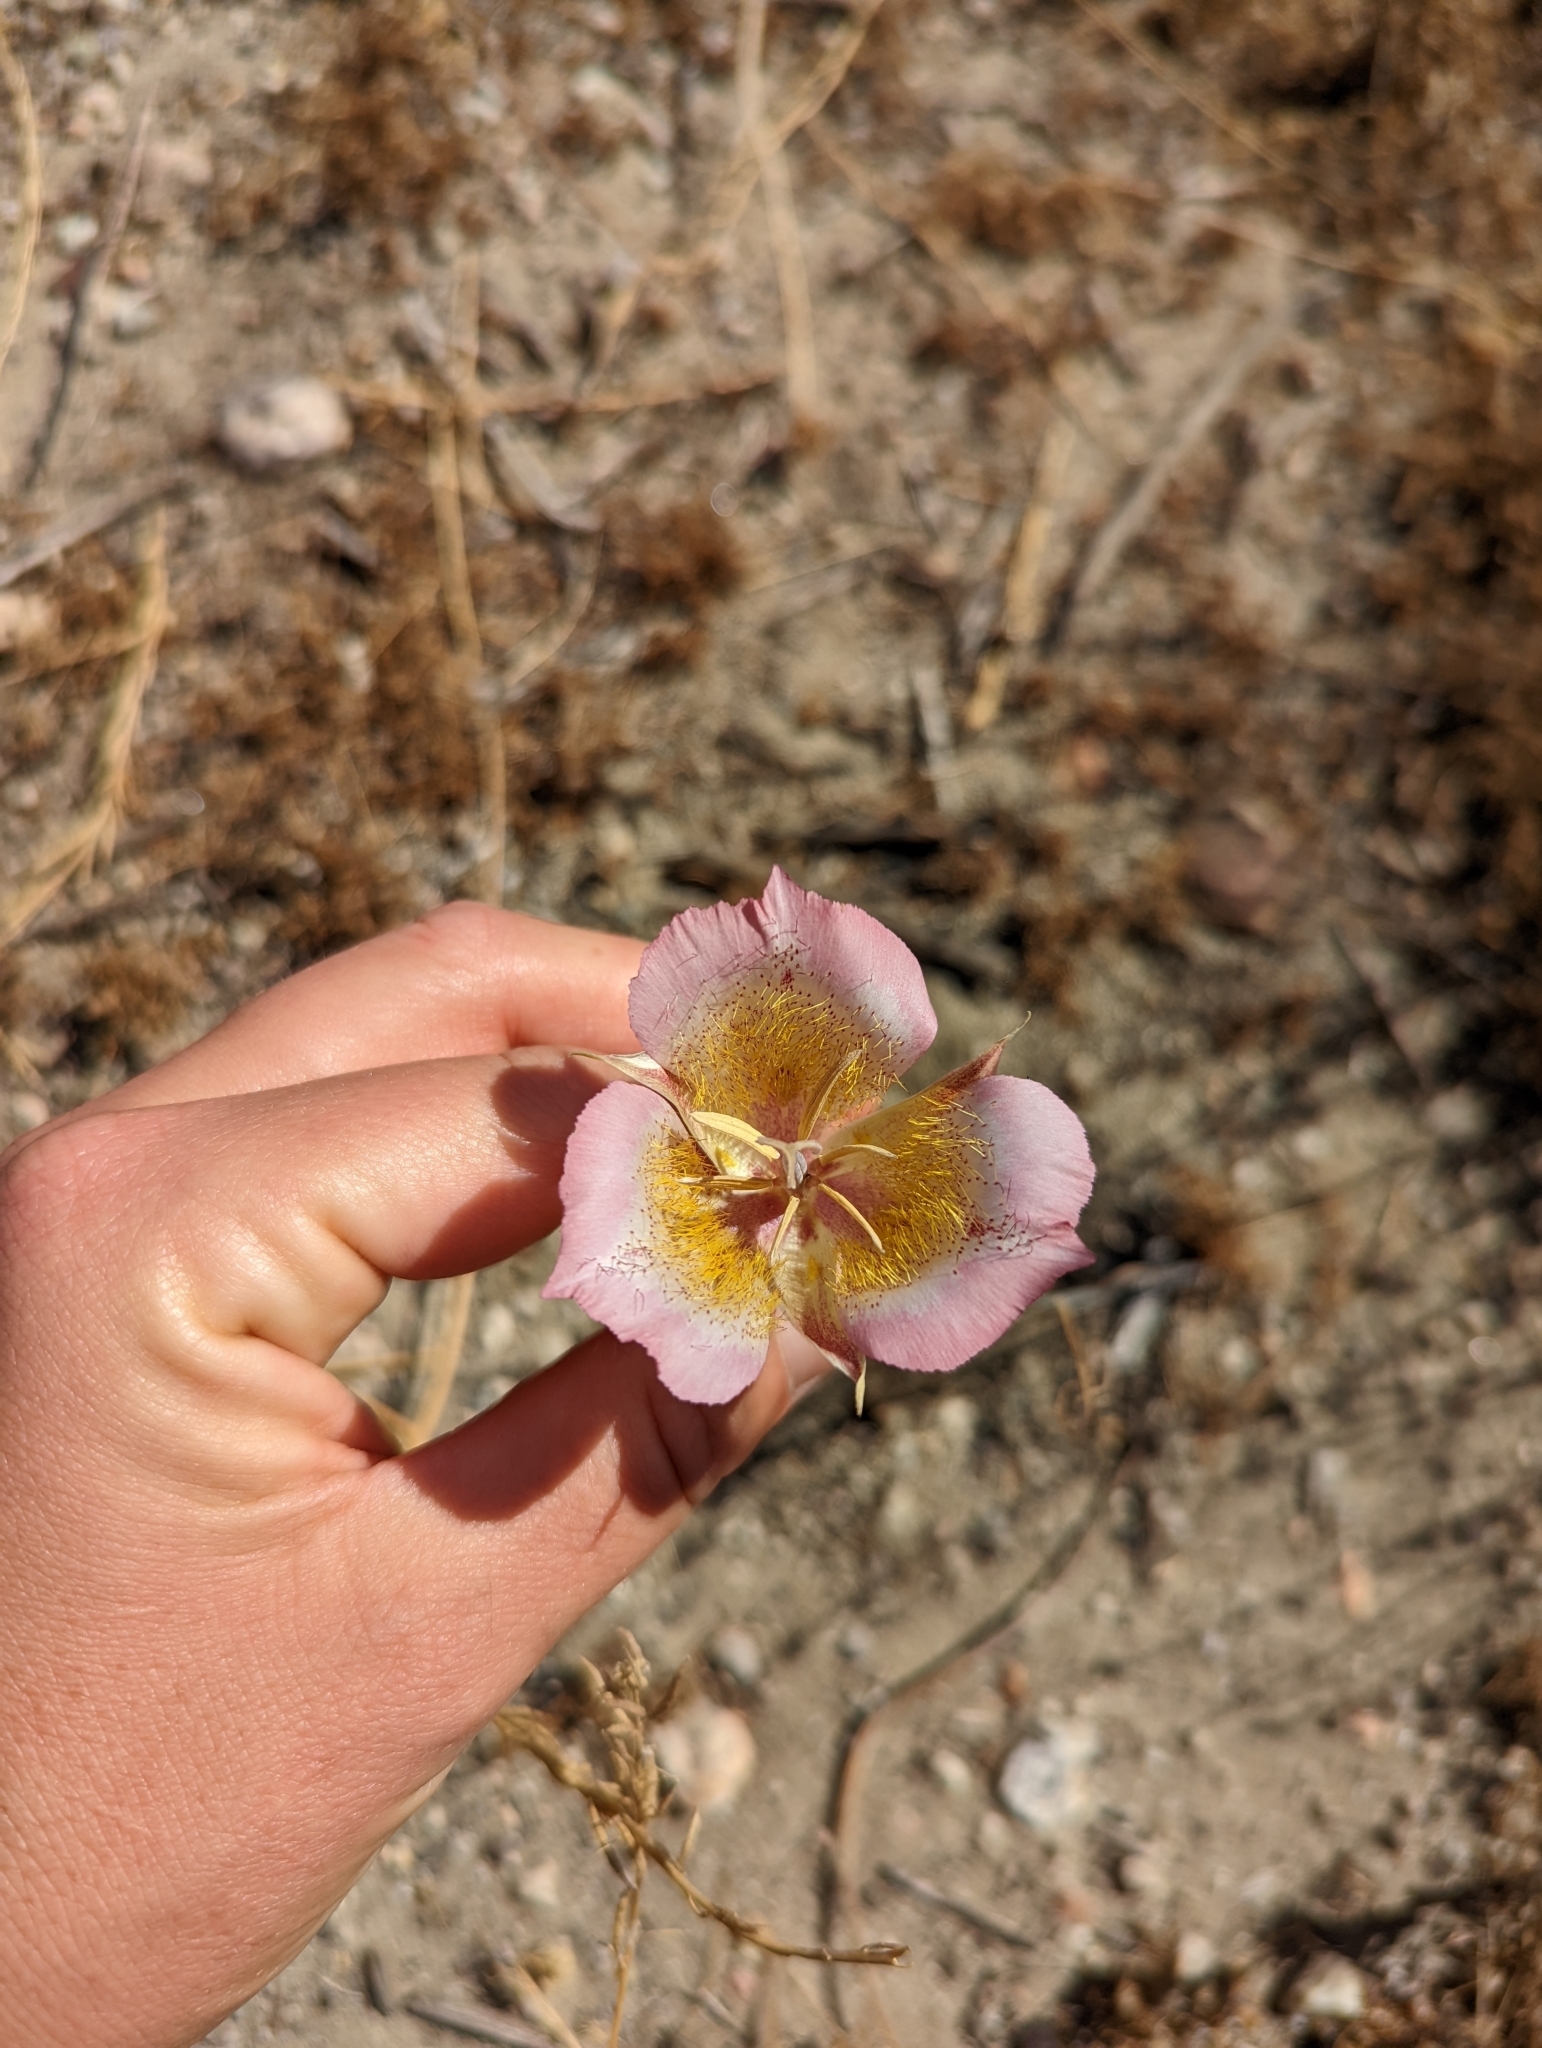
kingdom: Plantae
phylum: Tracheophyta
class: Liliopsida
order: Liliales
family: Liliaceae
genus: Calochortus
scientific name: Calochortus plummerae
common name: Plummer's mariposa-lily
